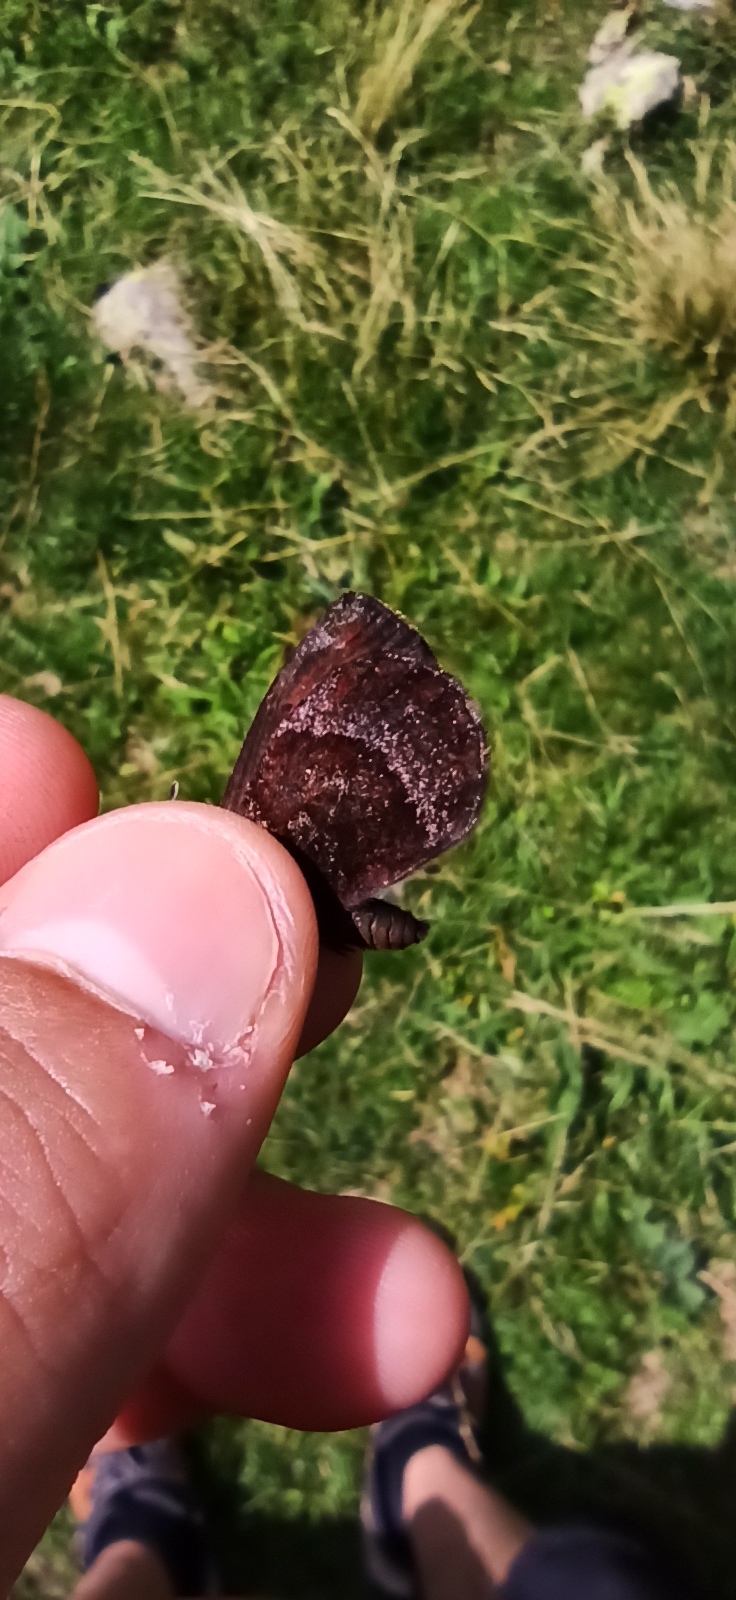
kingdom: Animalia
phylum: Arthropoda
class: Insecta
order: Lepidoptera
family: Nymphalidae
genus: Erebia
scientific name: Erebia pronoe
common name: Water ringlet
